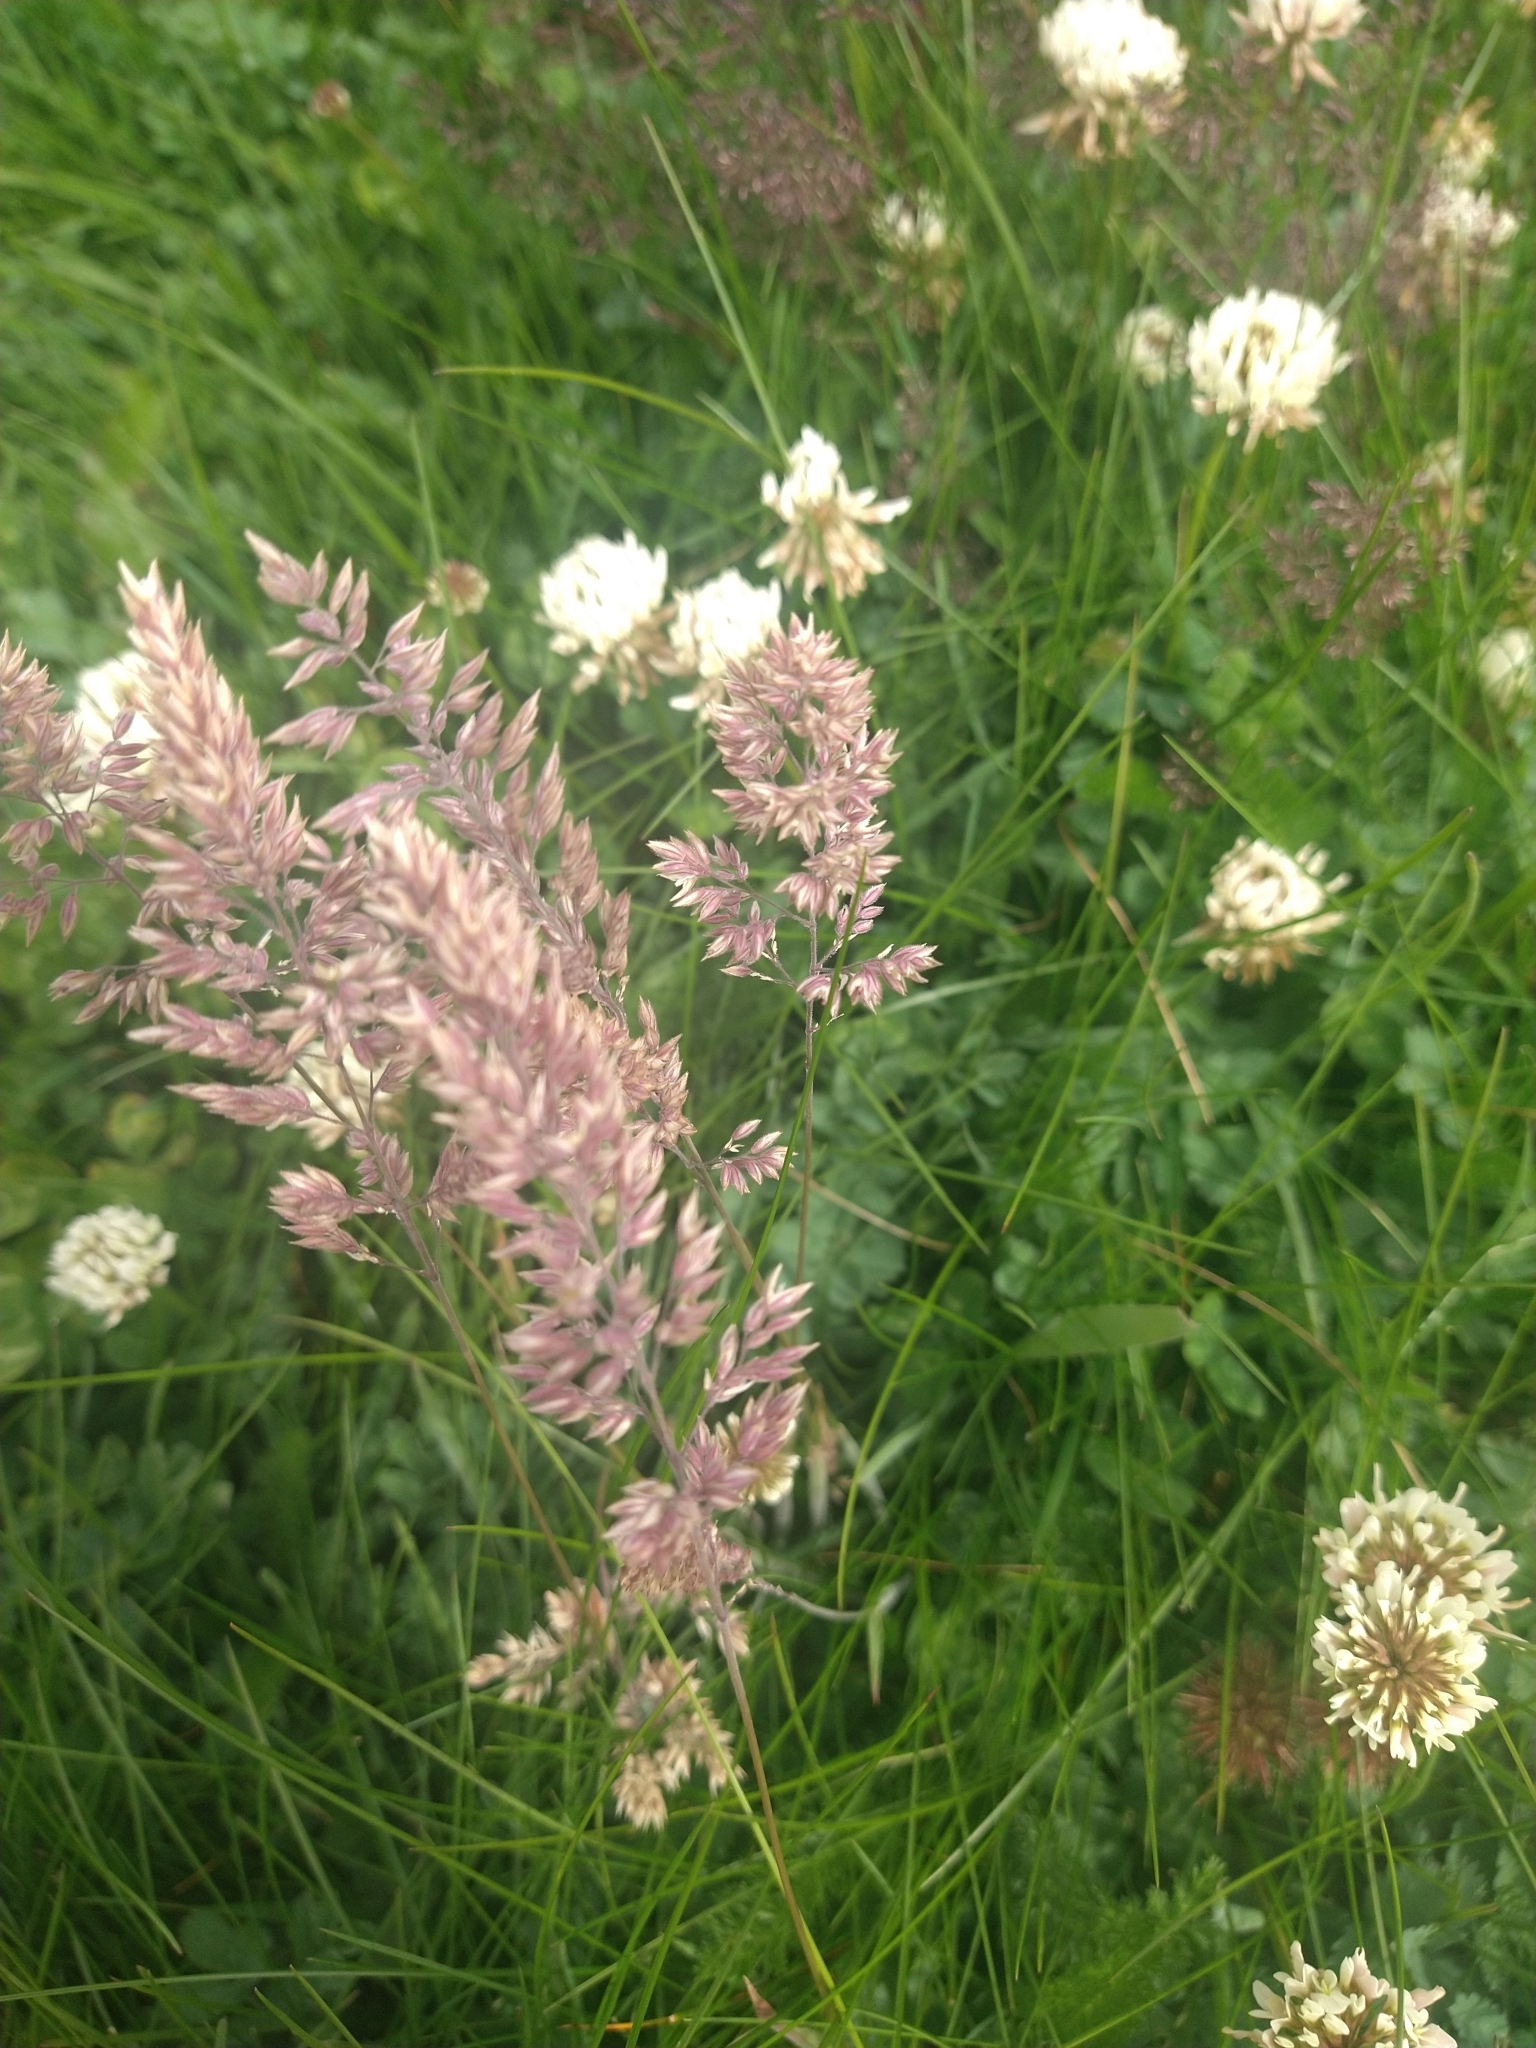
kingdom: Plantae
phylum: Tracheophyta
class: Liliopsida
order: Poales
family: Poaceae
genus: Holcus
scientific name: Holcus lanatus
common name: Yorkshire-fog
